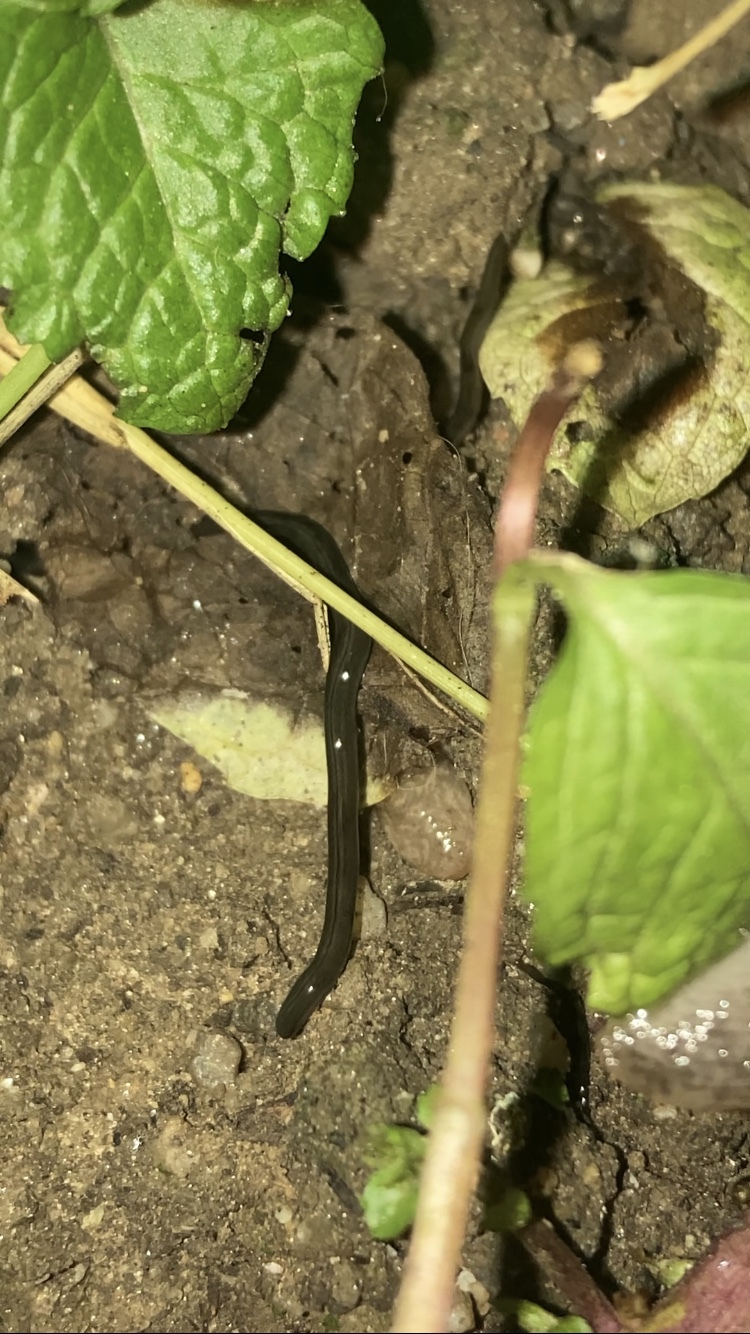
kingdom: Animalia
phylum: Platyhelminthes
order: Tricladida
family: Geoplanidae
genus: Parakontikia
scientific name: Parakontikia ventrolineata
